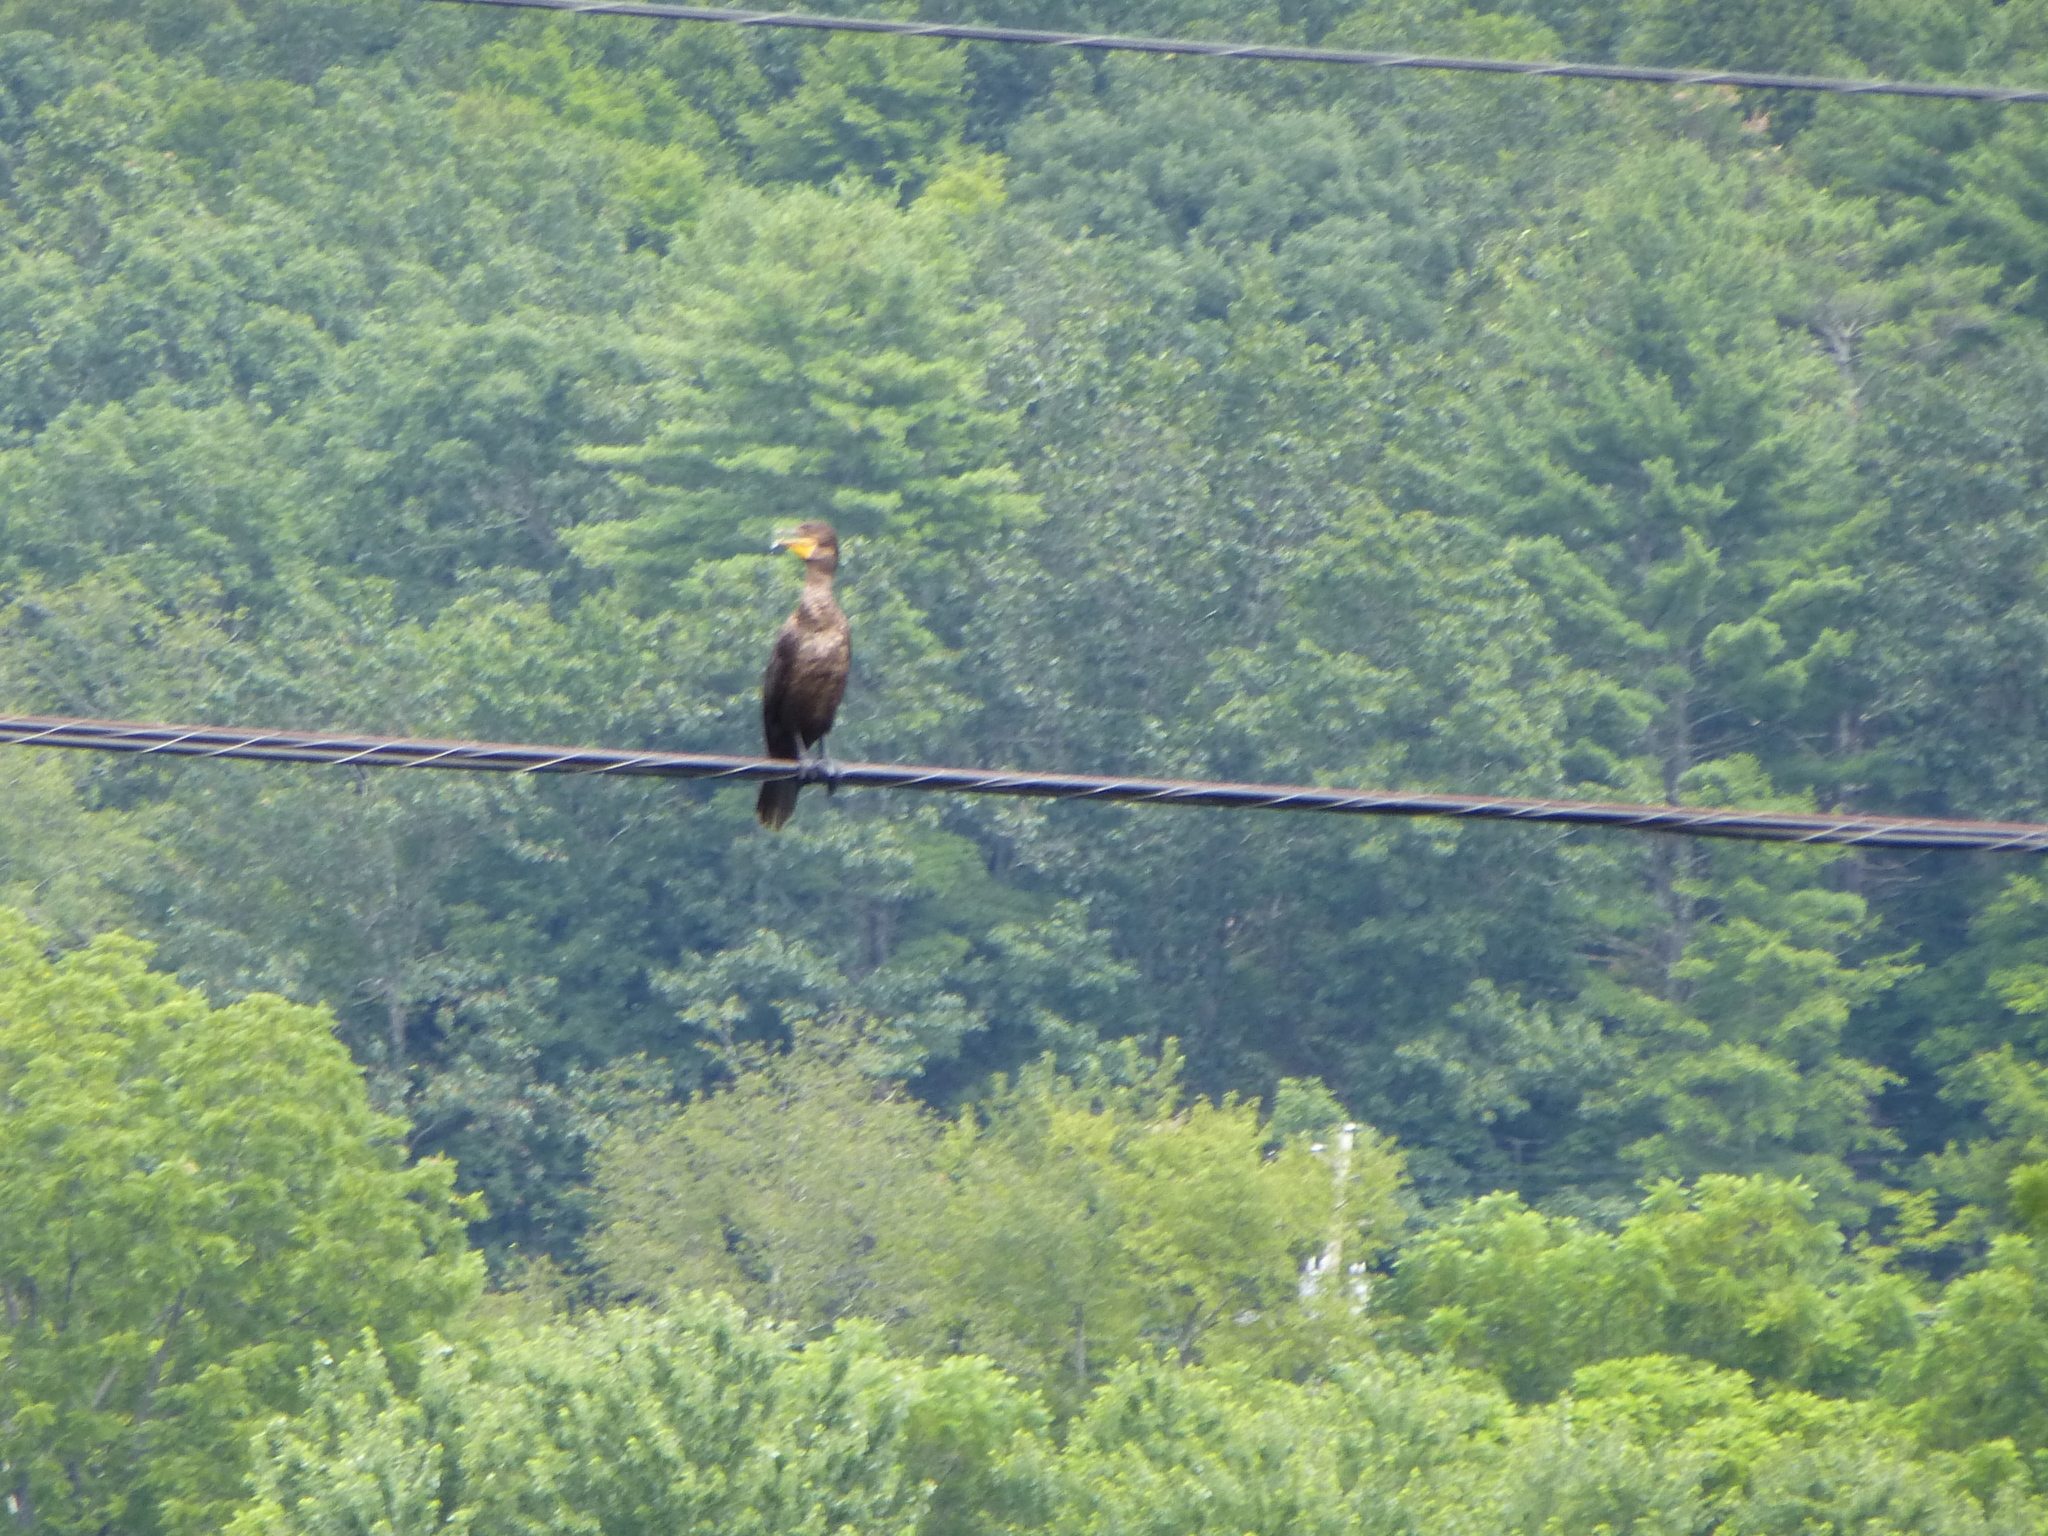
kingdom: Animalia
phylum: Chordata
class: Aves
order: Suliformes
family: Phalacrocoracidae
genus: Phalacrocorax
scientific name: Phalacrocorax auritus
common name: Double-crested cormorant
